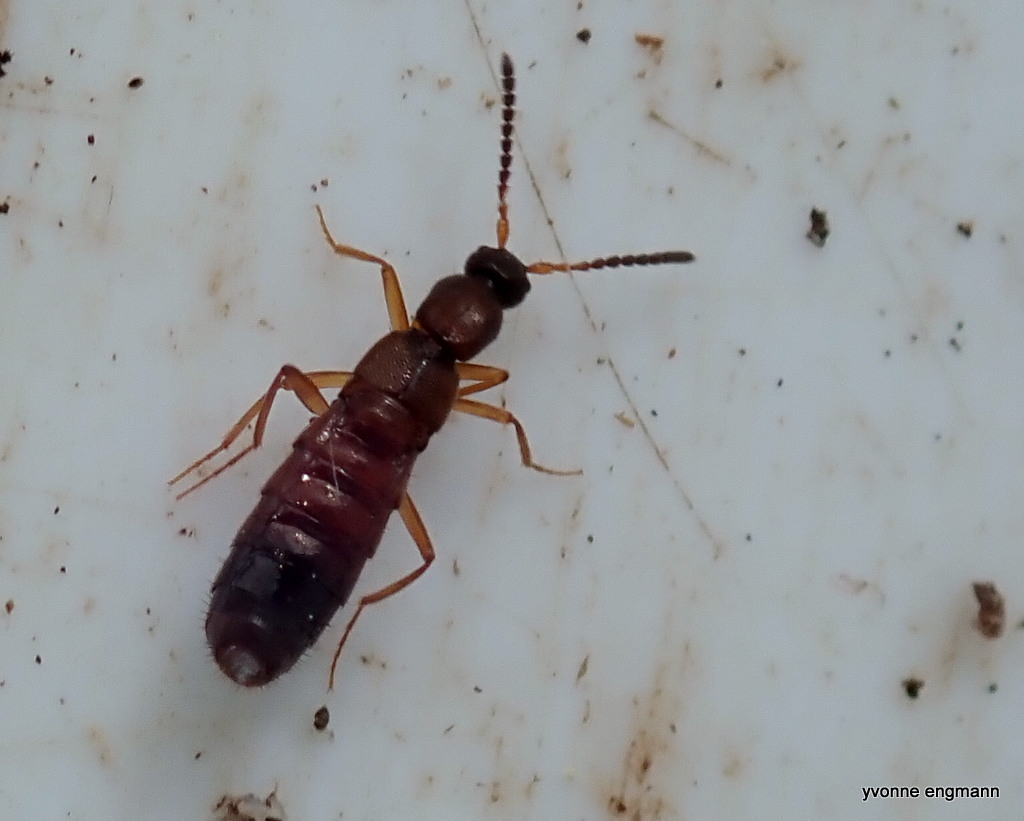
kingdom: Animalia
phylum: Arthropoda
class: Insecta
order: Coleoptera
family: Staphylinidae
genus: Drusilla
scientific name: Drusilla canaliculata
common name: Rove beetle
